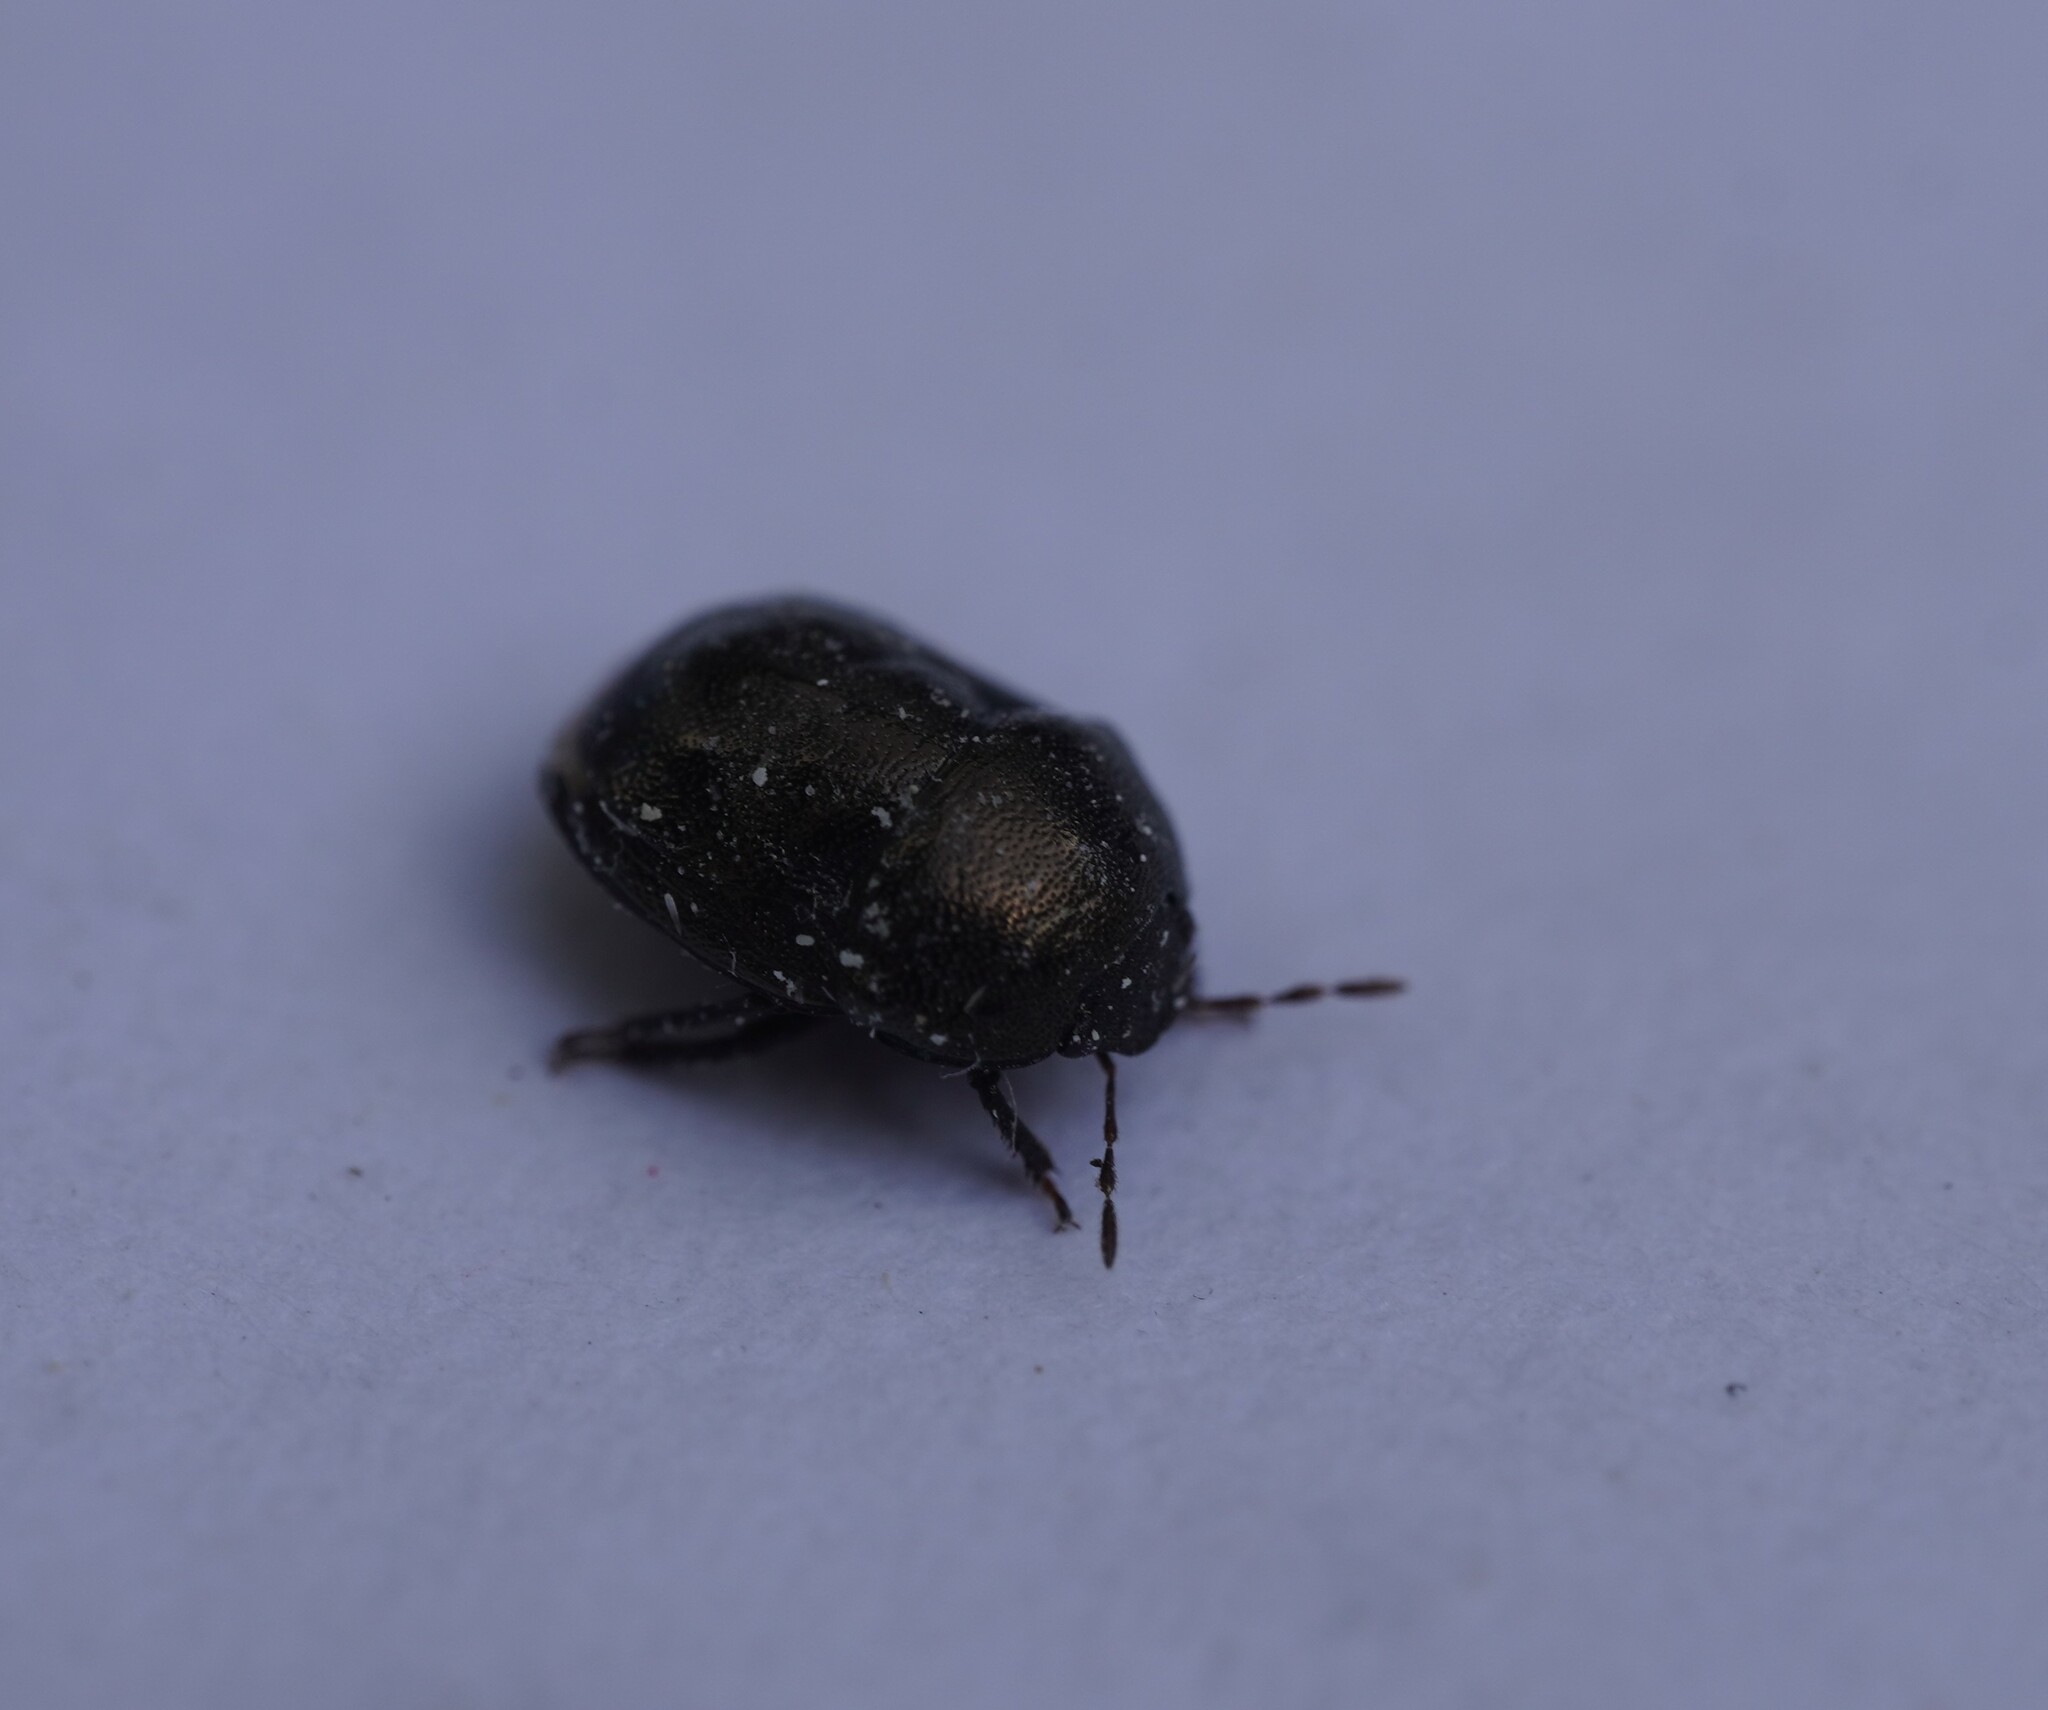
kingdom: Animalia
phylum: Arthropoda
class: Insecta
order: Hemiptera
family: Thyreocoridae
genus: Thyreocoris
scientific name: Thyreocoris scarabaeoides
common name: Negro bug
